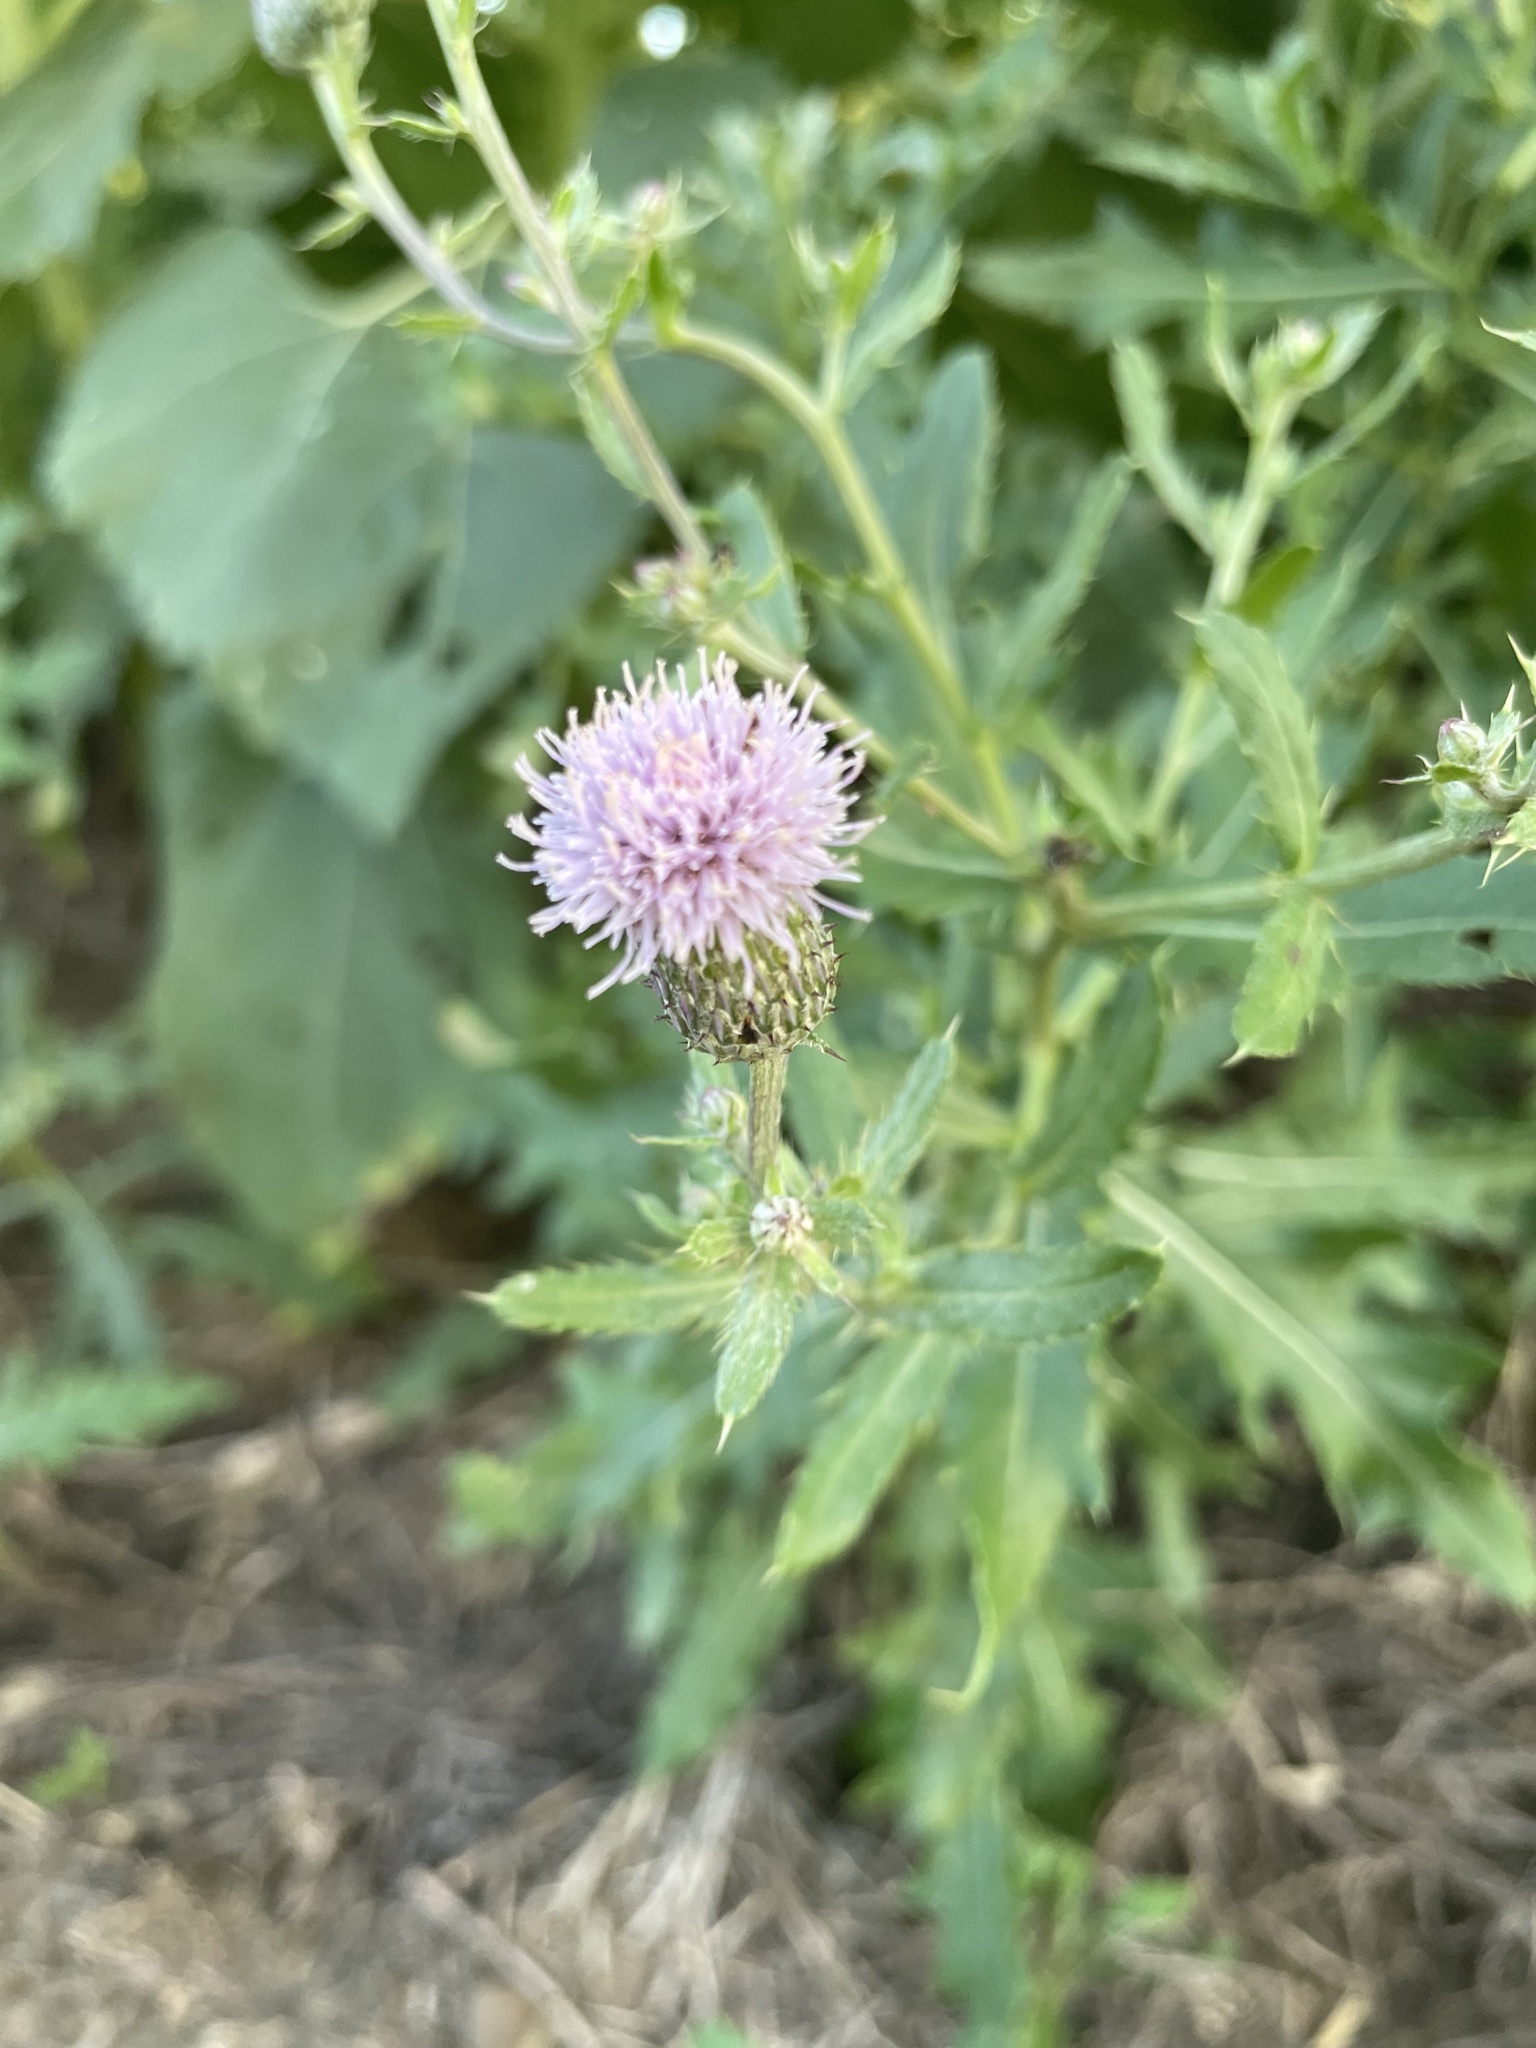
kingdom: Plantae
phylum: Tracheophyta
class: Magnoliopsida
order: Asterales
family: Asteraceae
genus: Cirsium
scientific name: Cirsium arvense
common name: Creeping thistle
